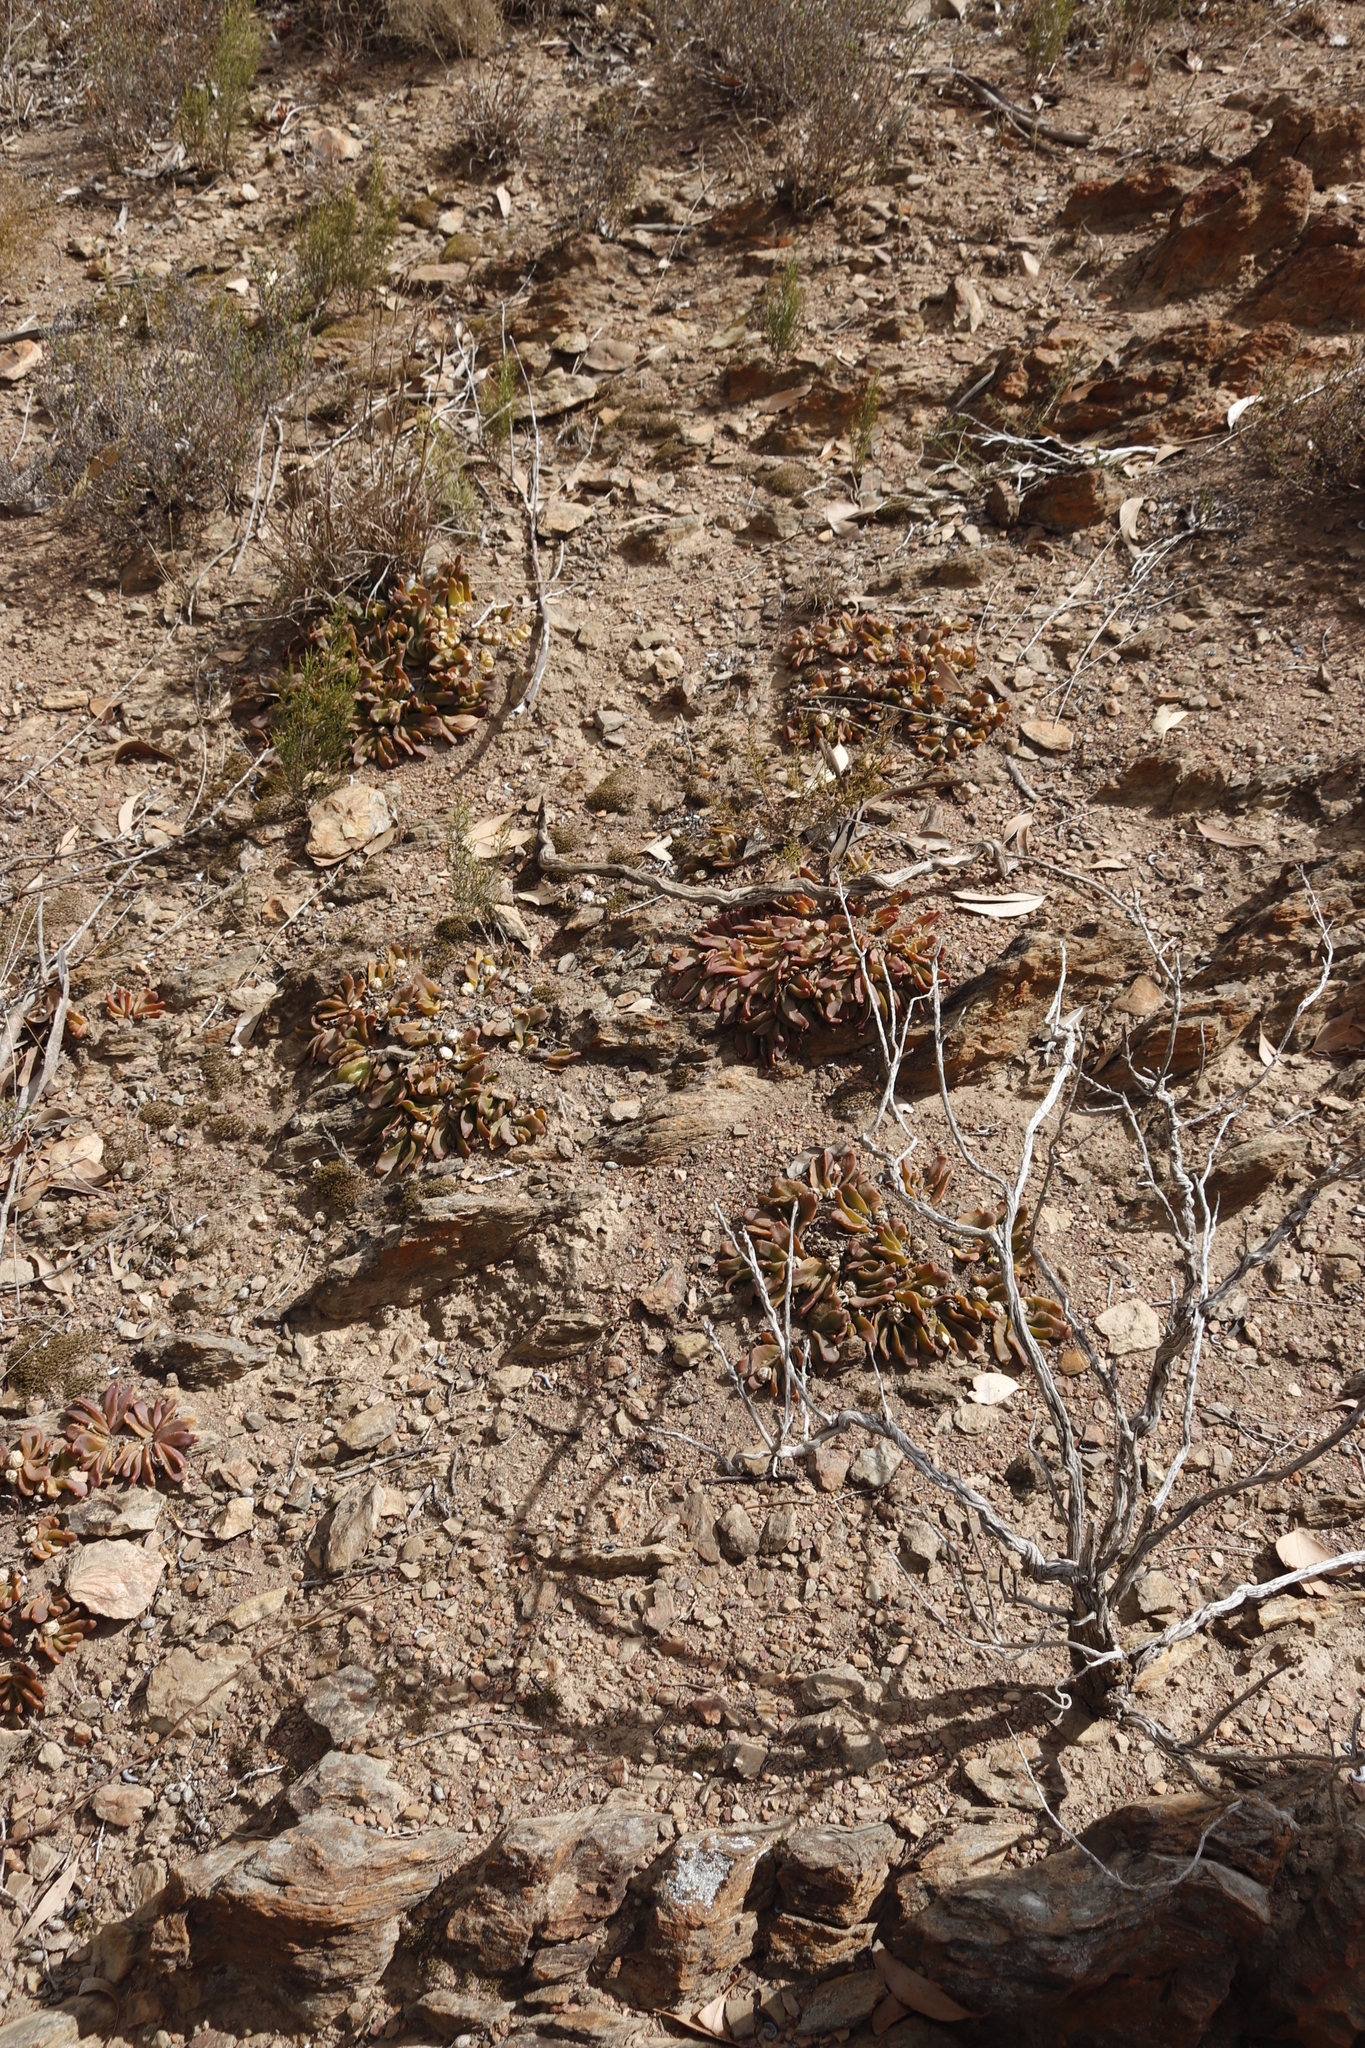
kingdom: Plantae
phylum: Tracheophyta
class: Magnoliopsida
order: Caryophyllales
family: Aizoaceae
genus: Glottiphyllum
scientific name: Glottiphyllum depressum
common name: Fig-marigold
